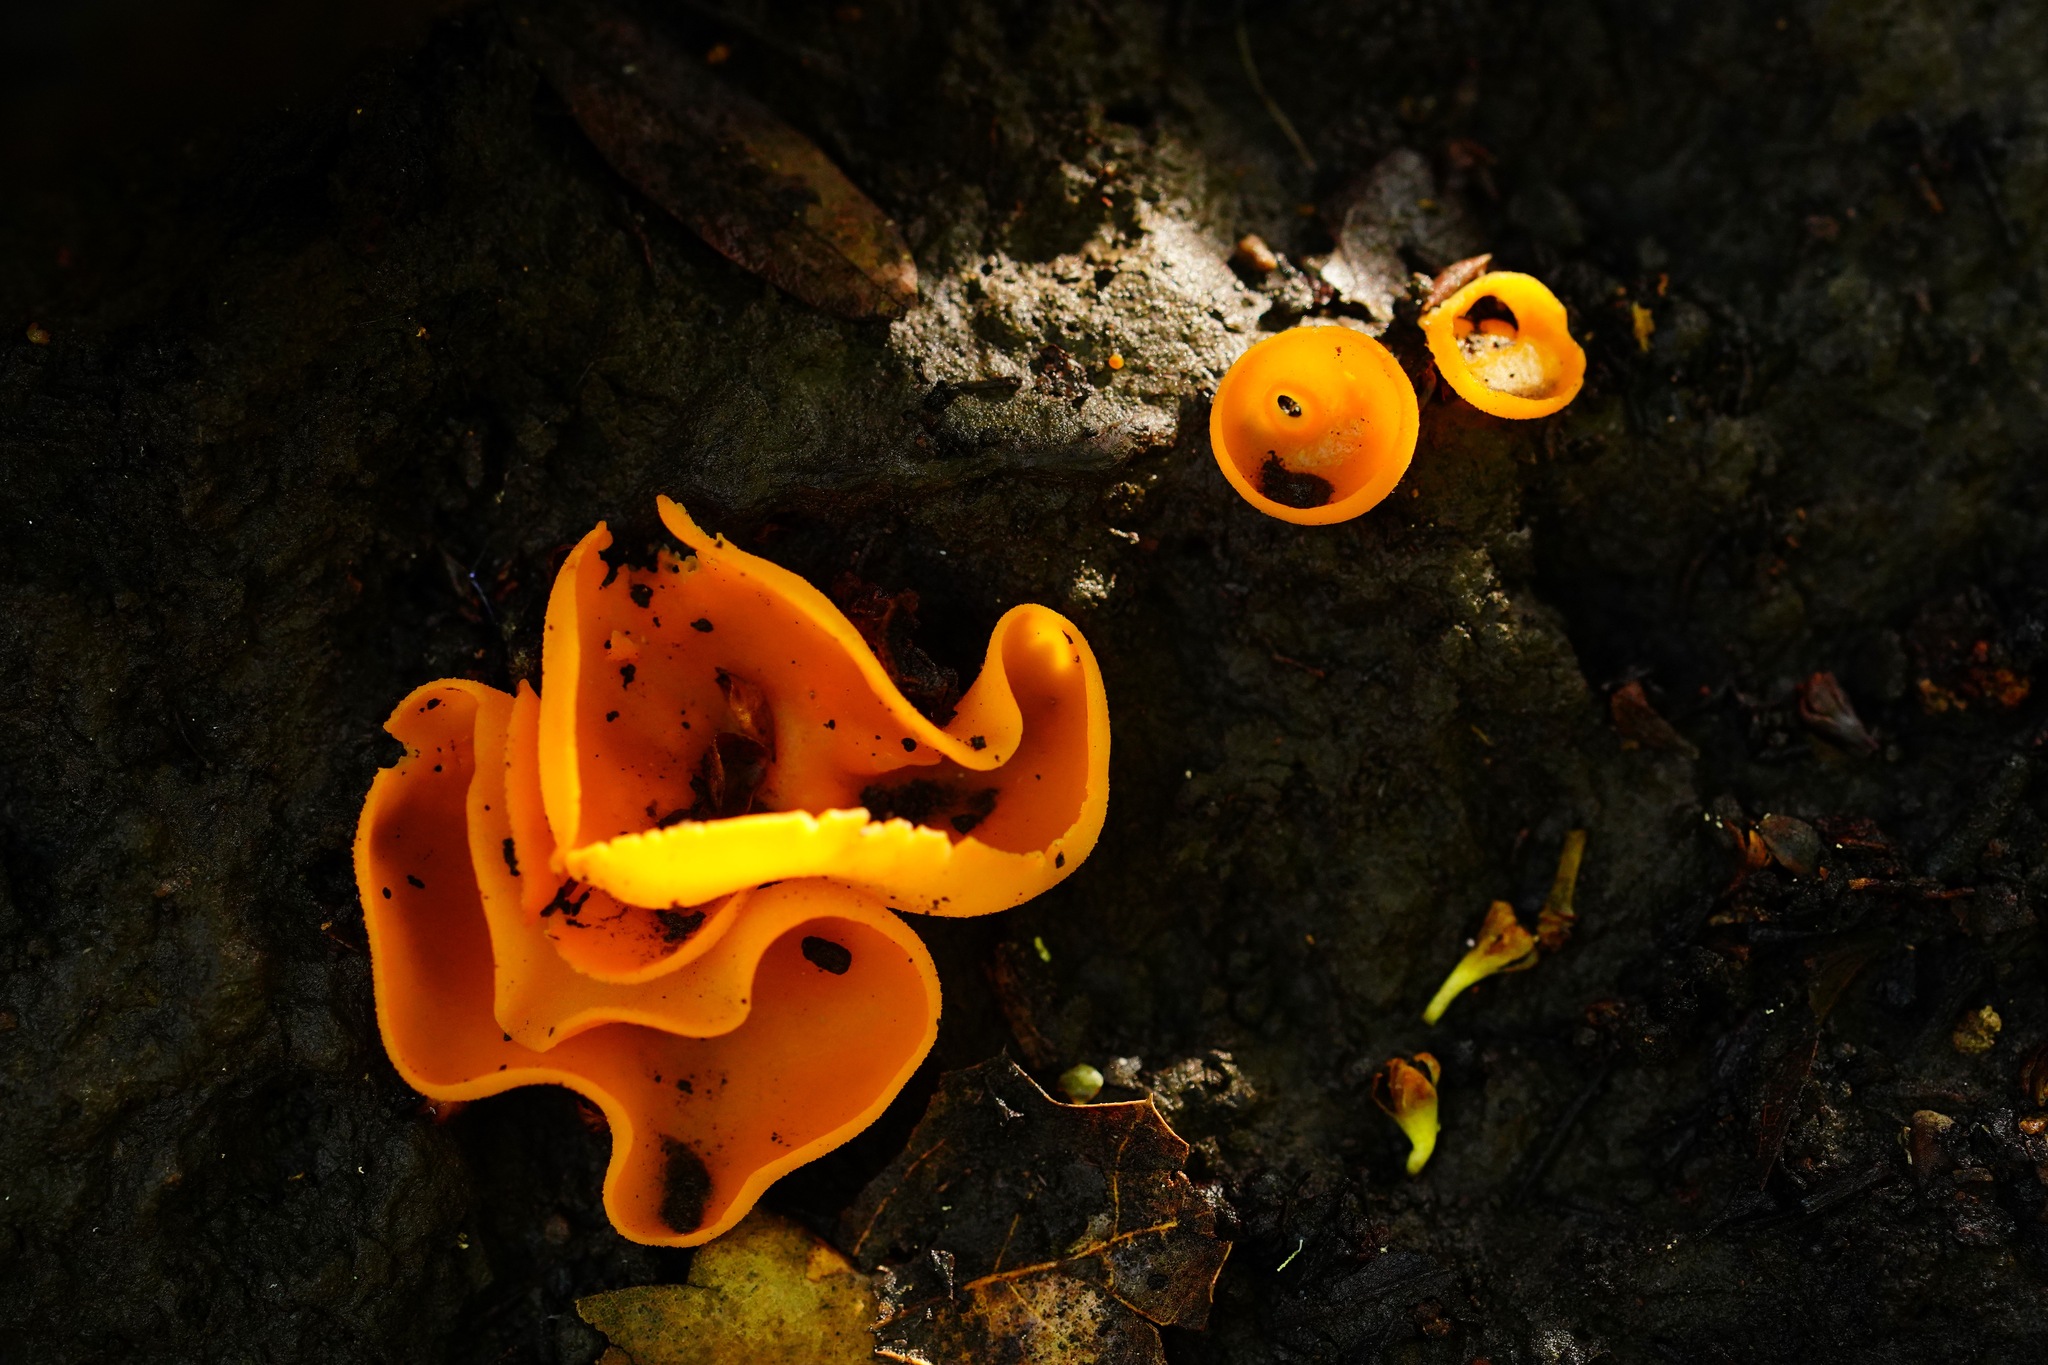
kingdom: Fungi
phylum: Ascomycota
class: Pezizomycetes
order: Pezizales
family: Pyronemataceae
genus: Aleuria
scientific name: Aleuria aurantia
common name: Orange peel fungus
